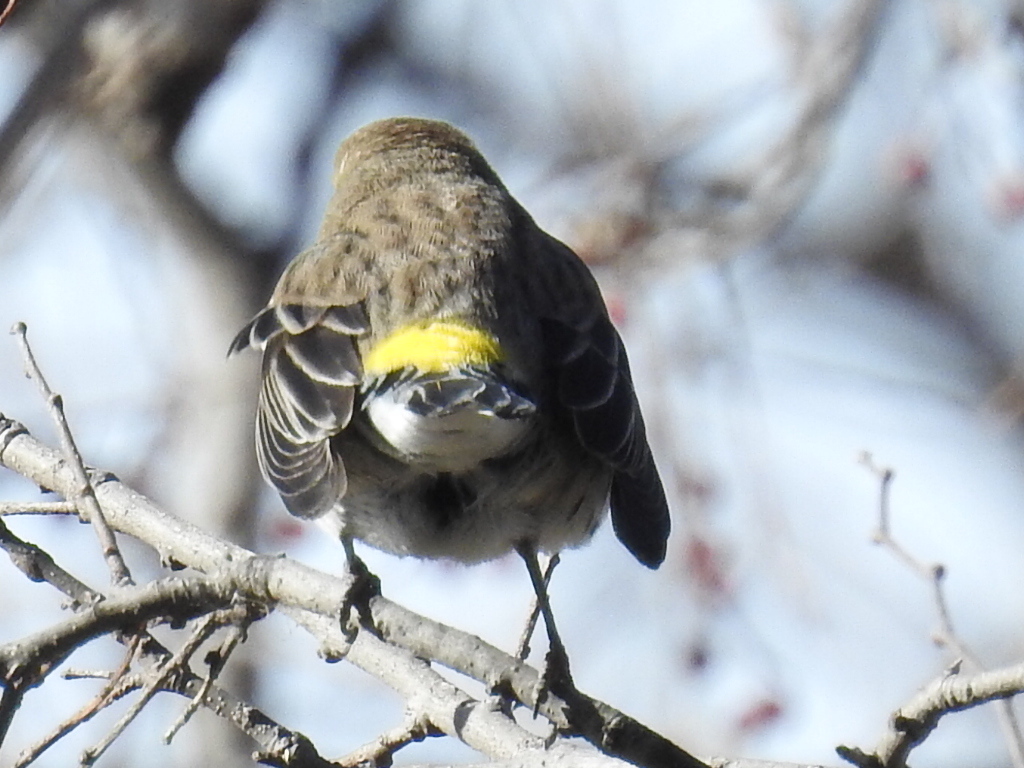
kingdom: Animalia
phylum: Chordata
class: Aves
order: Passeriformes
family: Parulidae
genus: Setophaga
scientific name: Setophaga coronata
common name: Myrtle warbler
